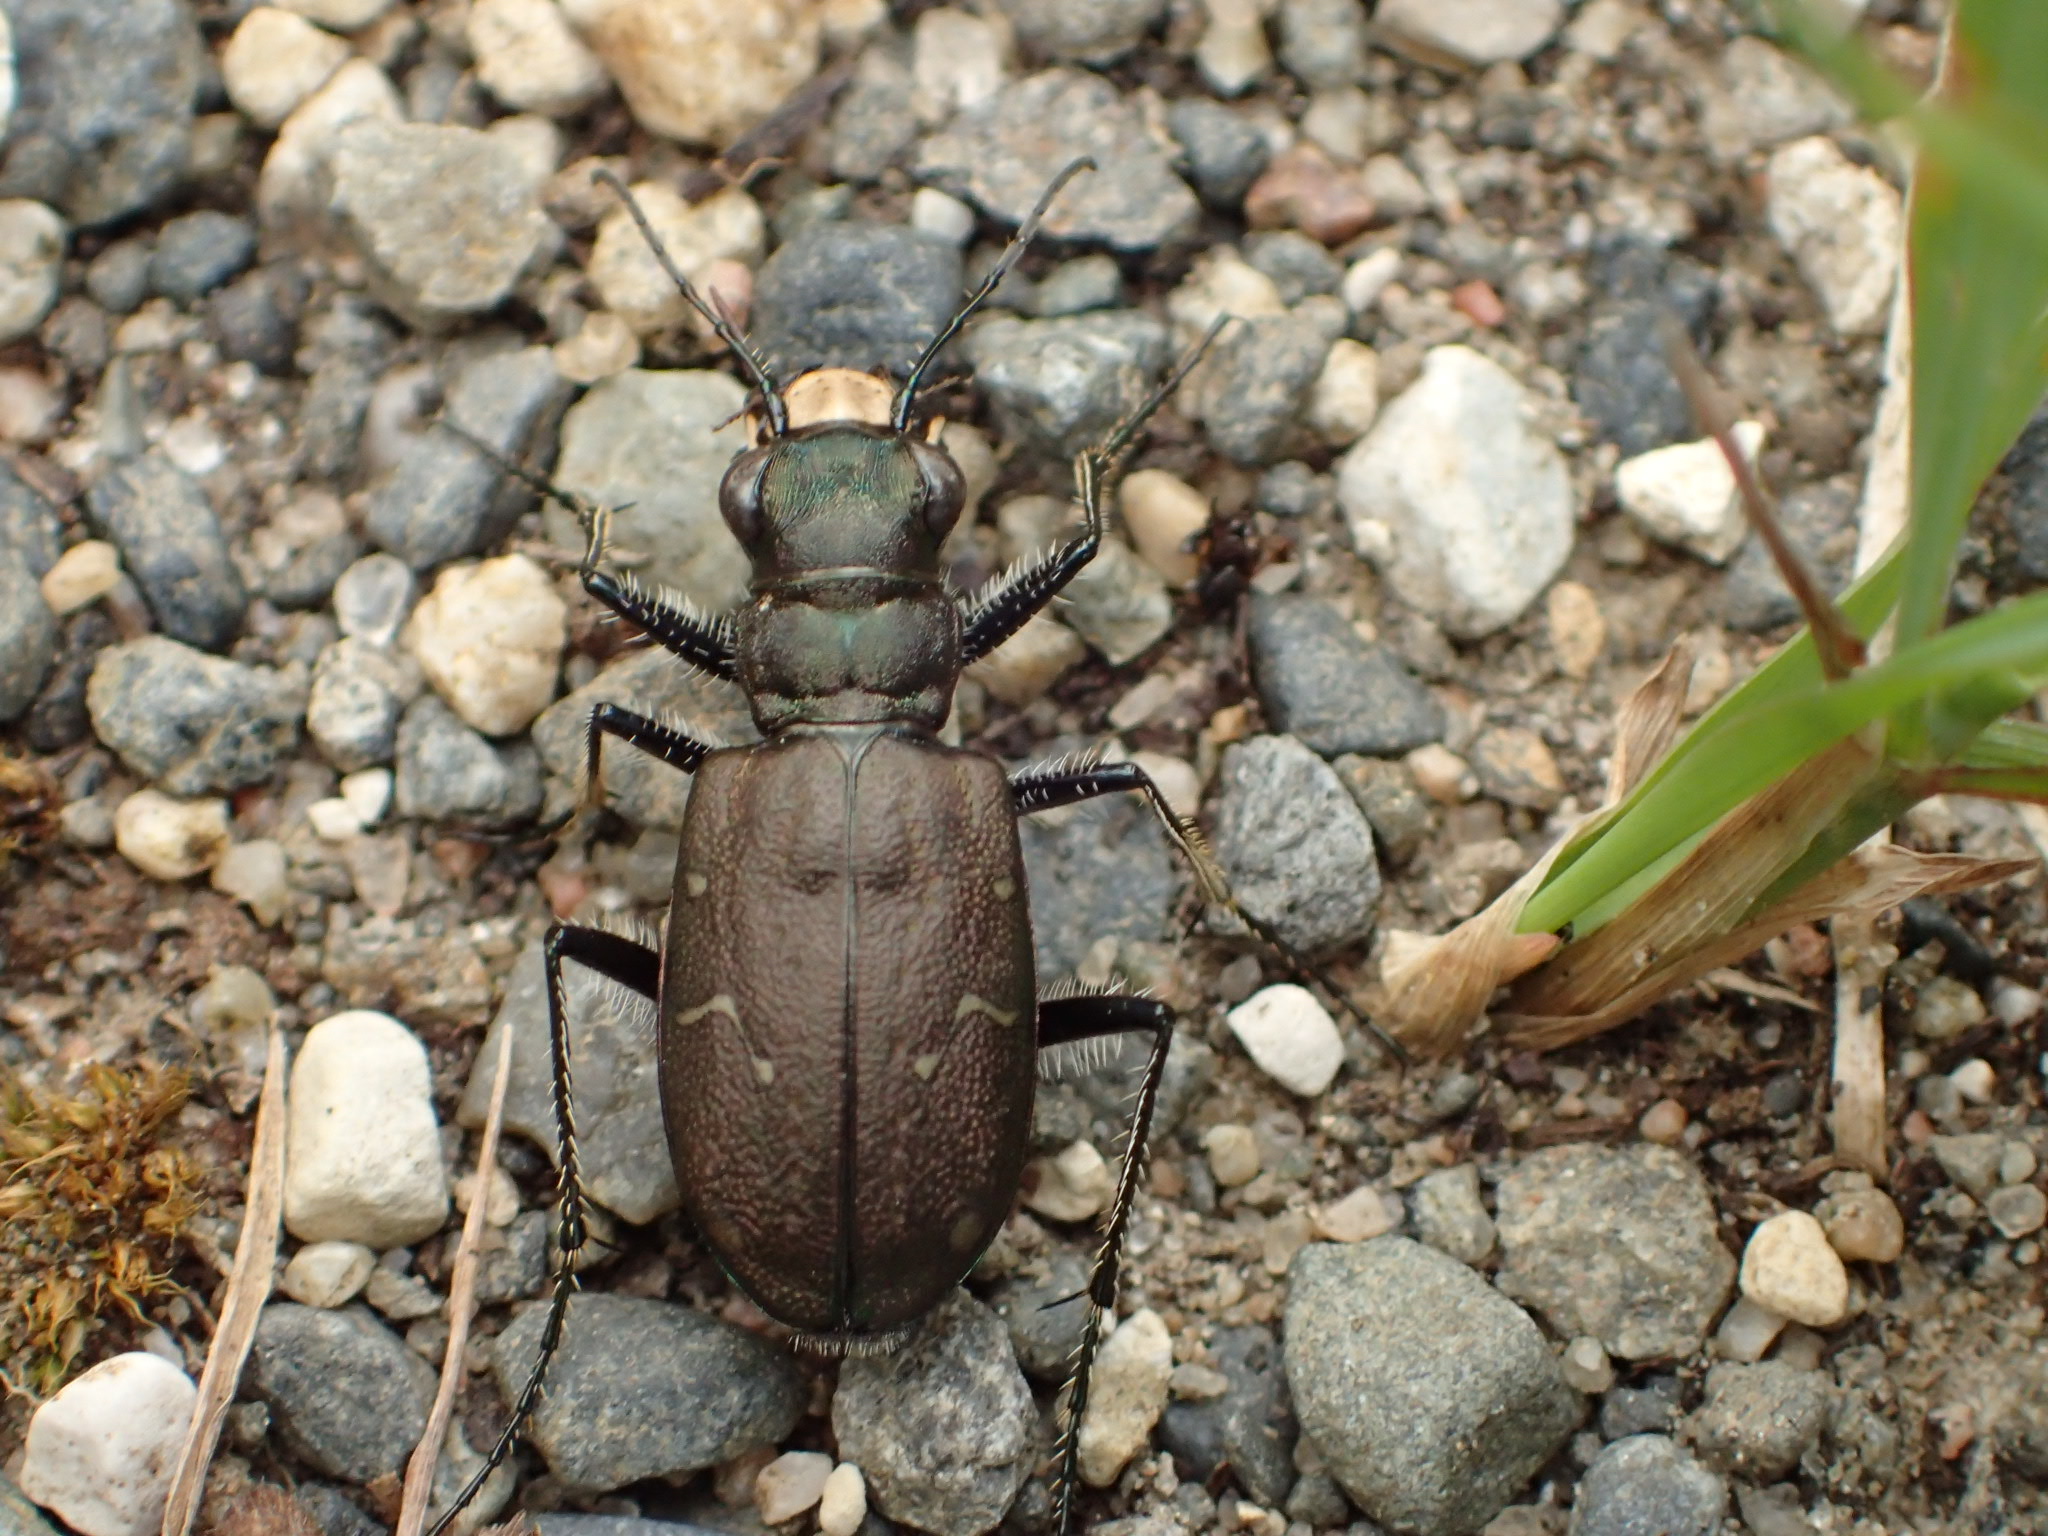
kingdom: Animalia
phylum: Arthropoda
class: Insecta
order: Coleoptera
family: Carabidae
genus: Cicindela
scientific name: Cicindela longilabris
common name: Boreal long-lipped tiger beetle
